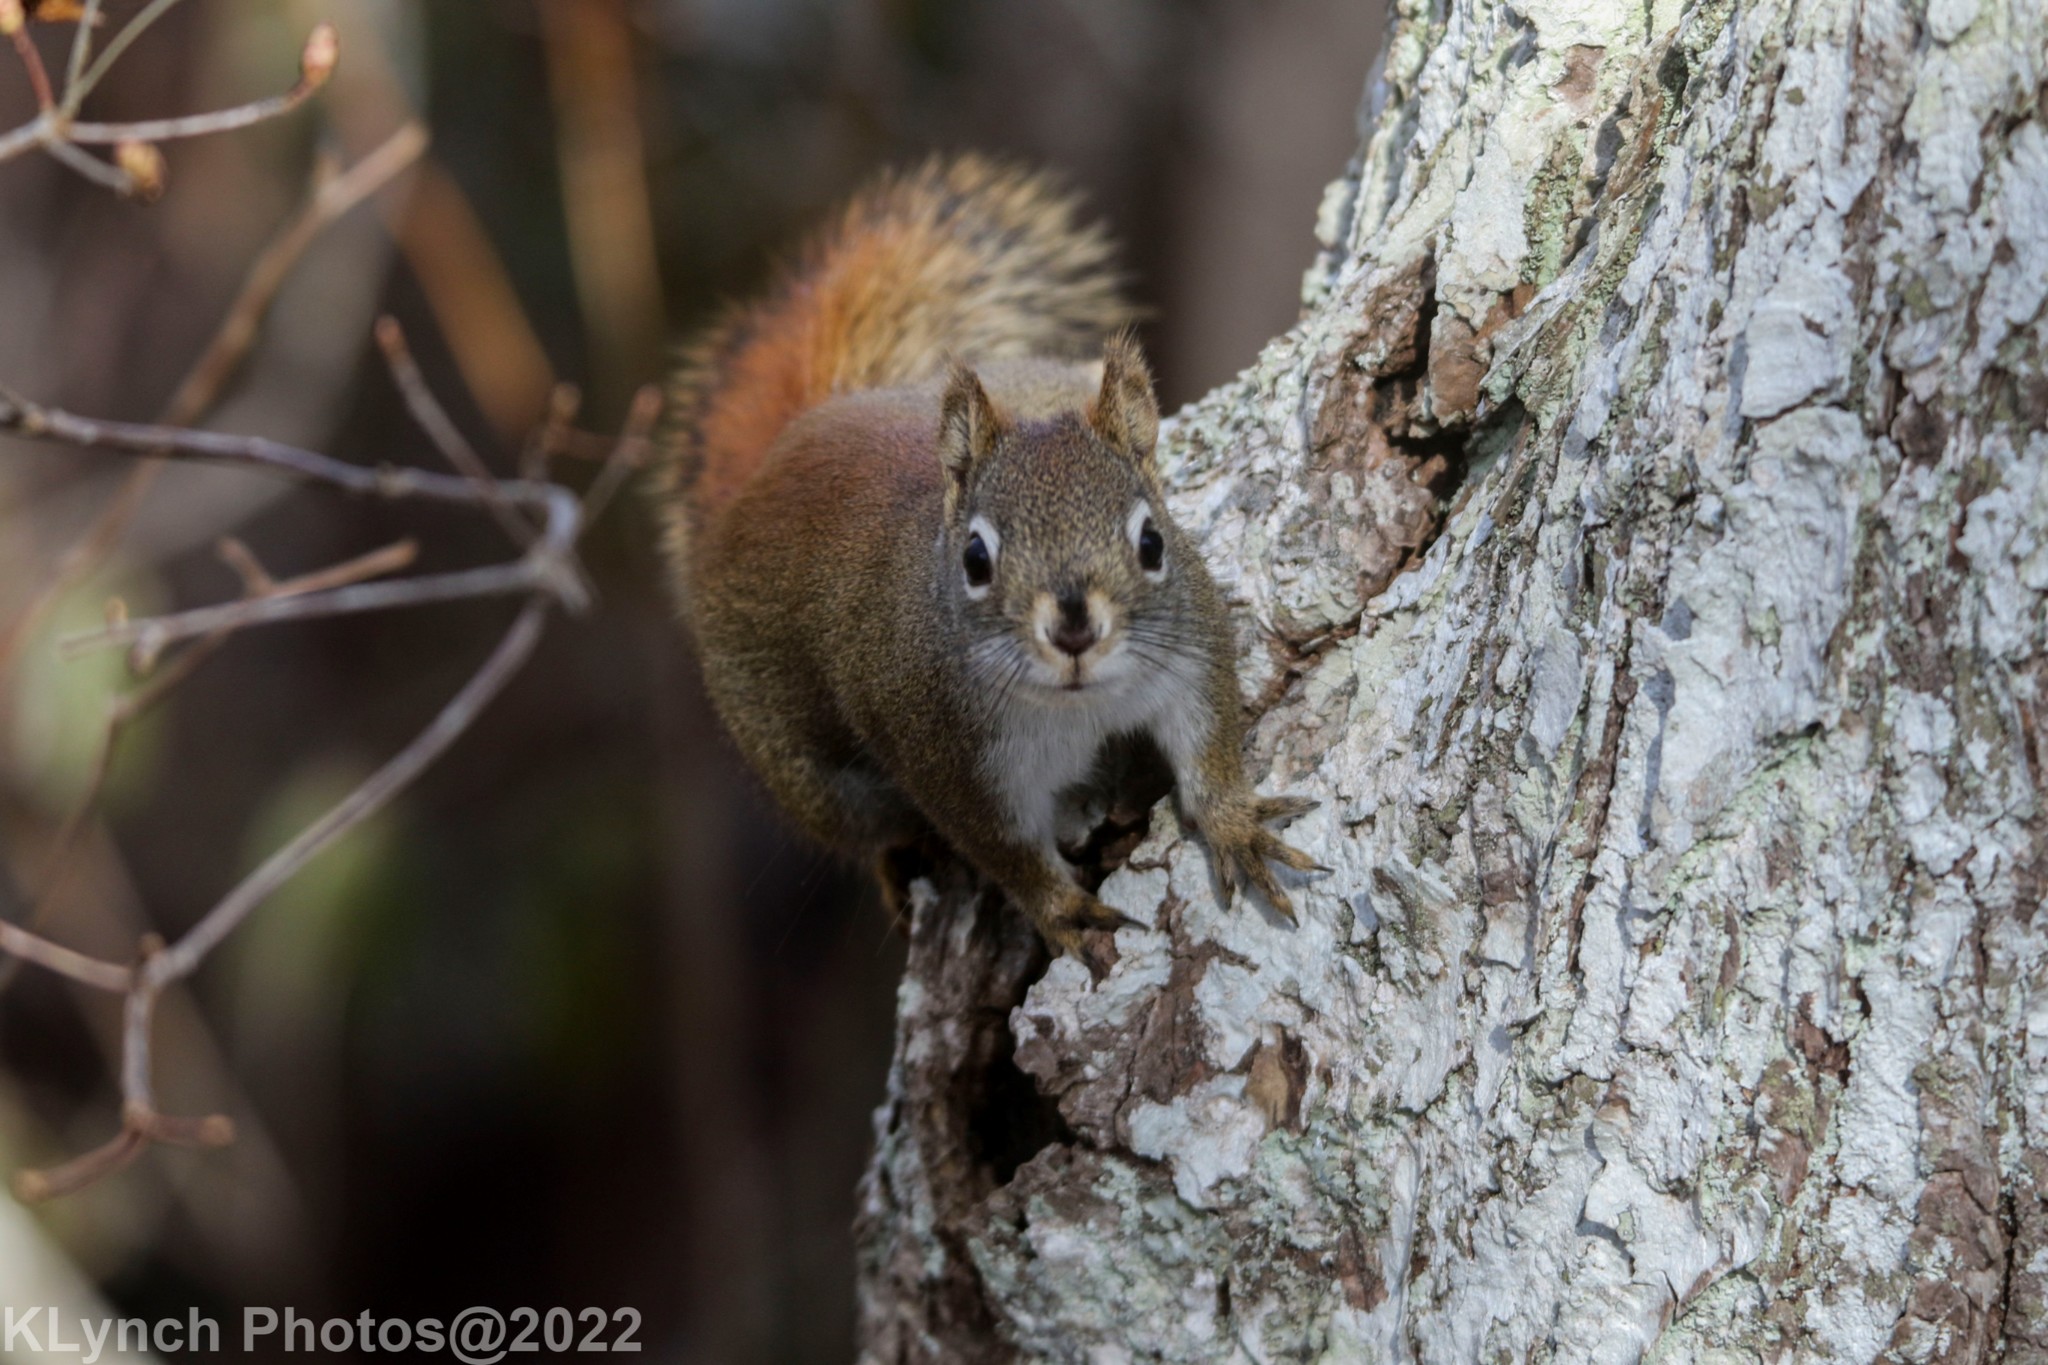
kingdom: Animalia
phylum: Chordata
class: Mammalia
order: Rodentia
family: Sciuridae
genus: Tamiasciurus
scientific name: Tamiasciurus hudsonicus
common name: Red squirrel
